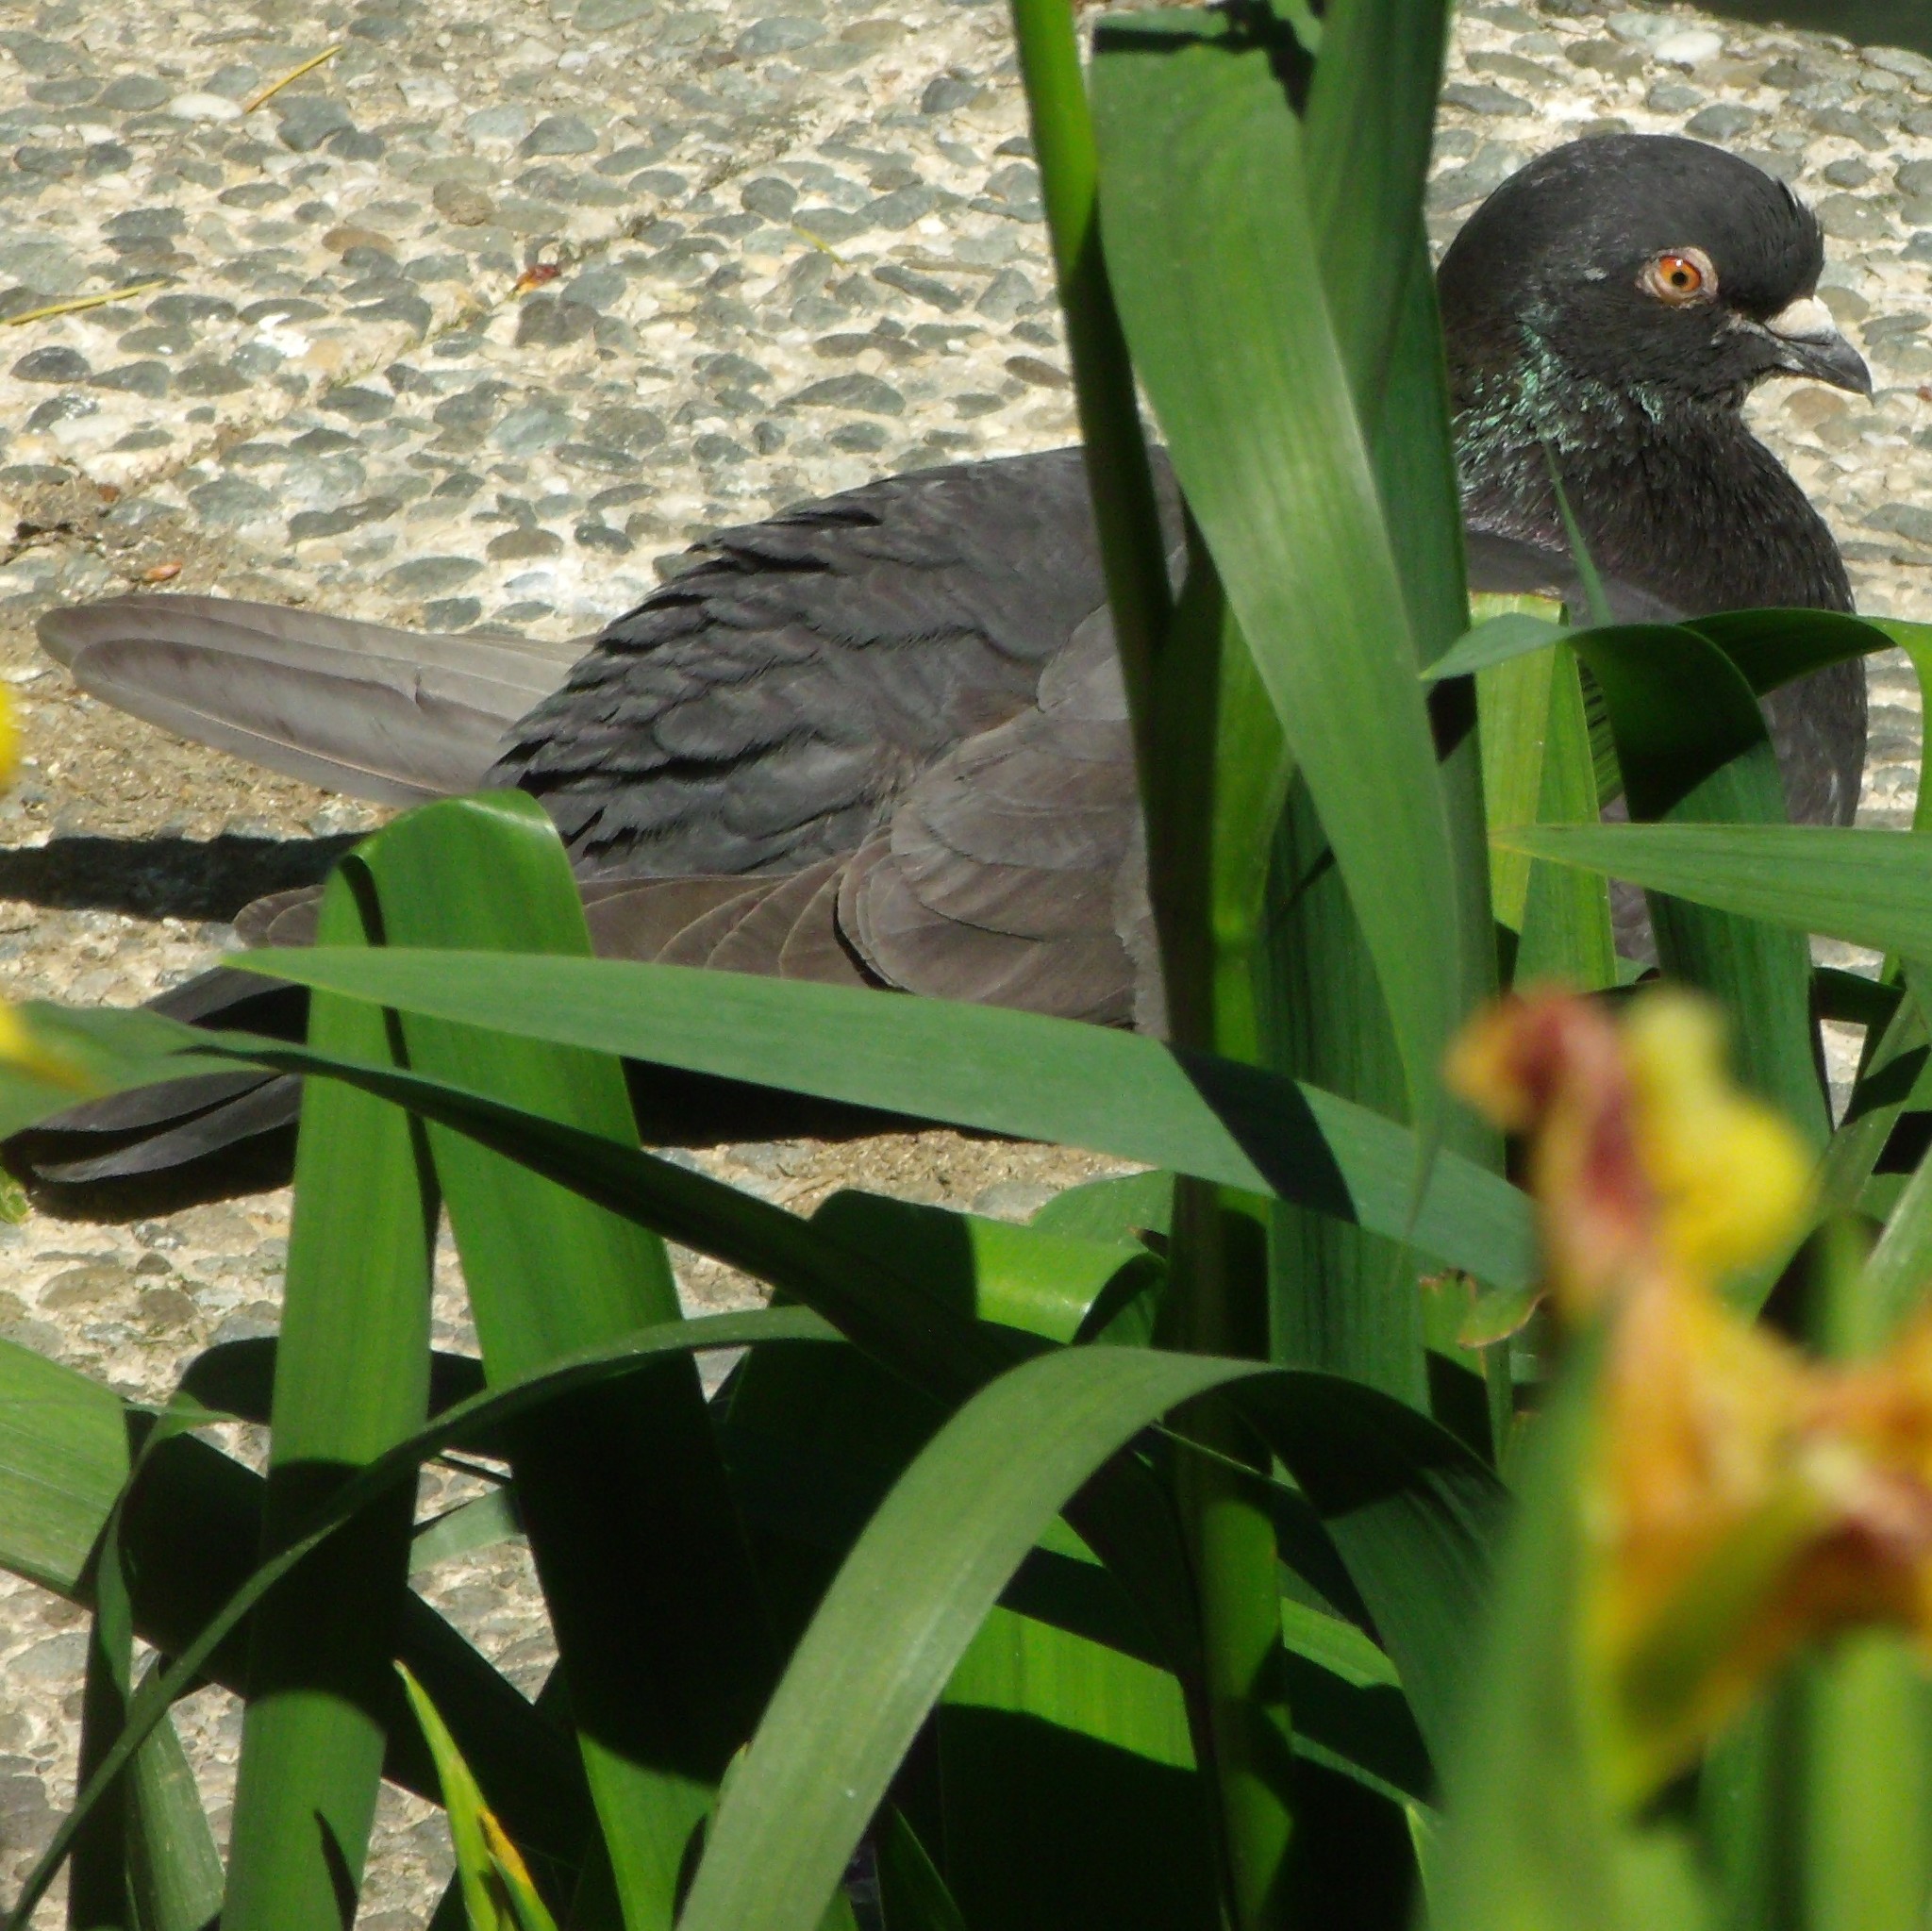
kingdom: Animalia
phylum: Chordata
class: Aves
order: Columbiformes
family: Columbidae
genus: Columba
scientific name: Columba livia
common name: Rock pigeon
